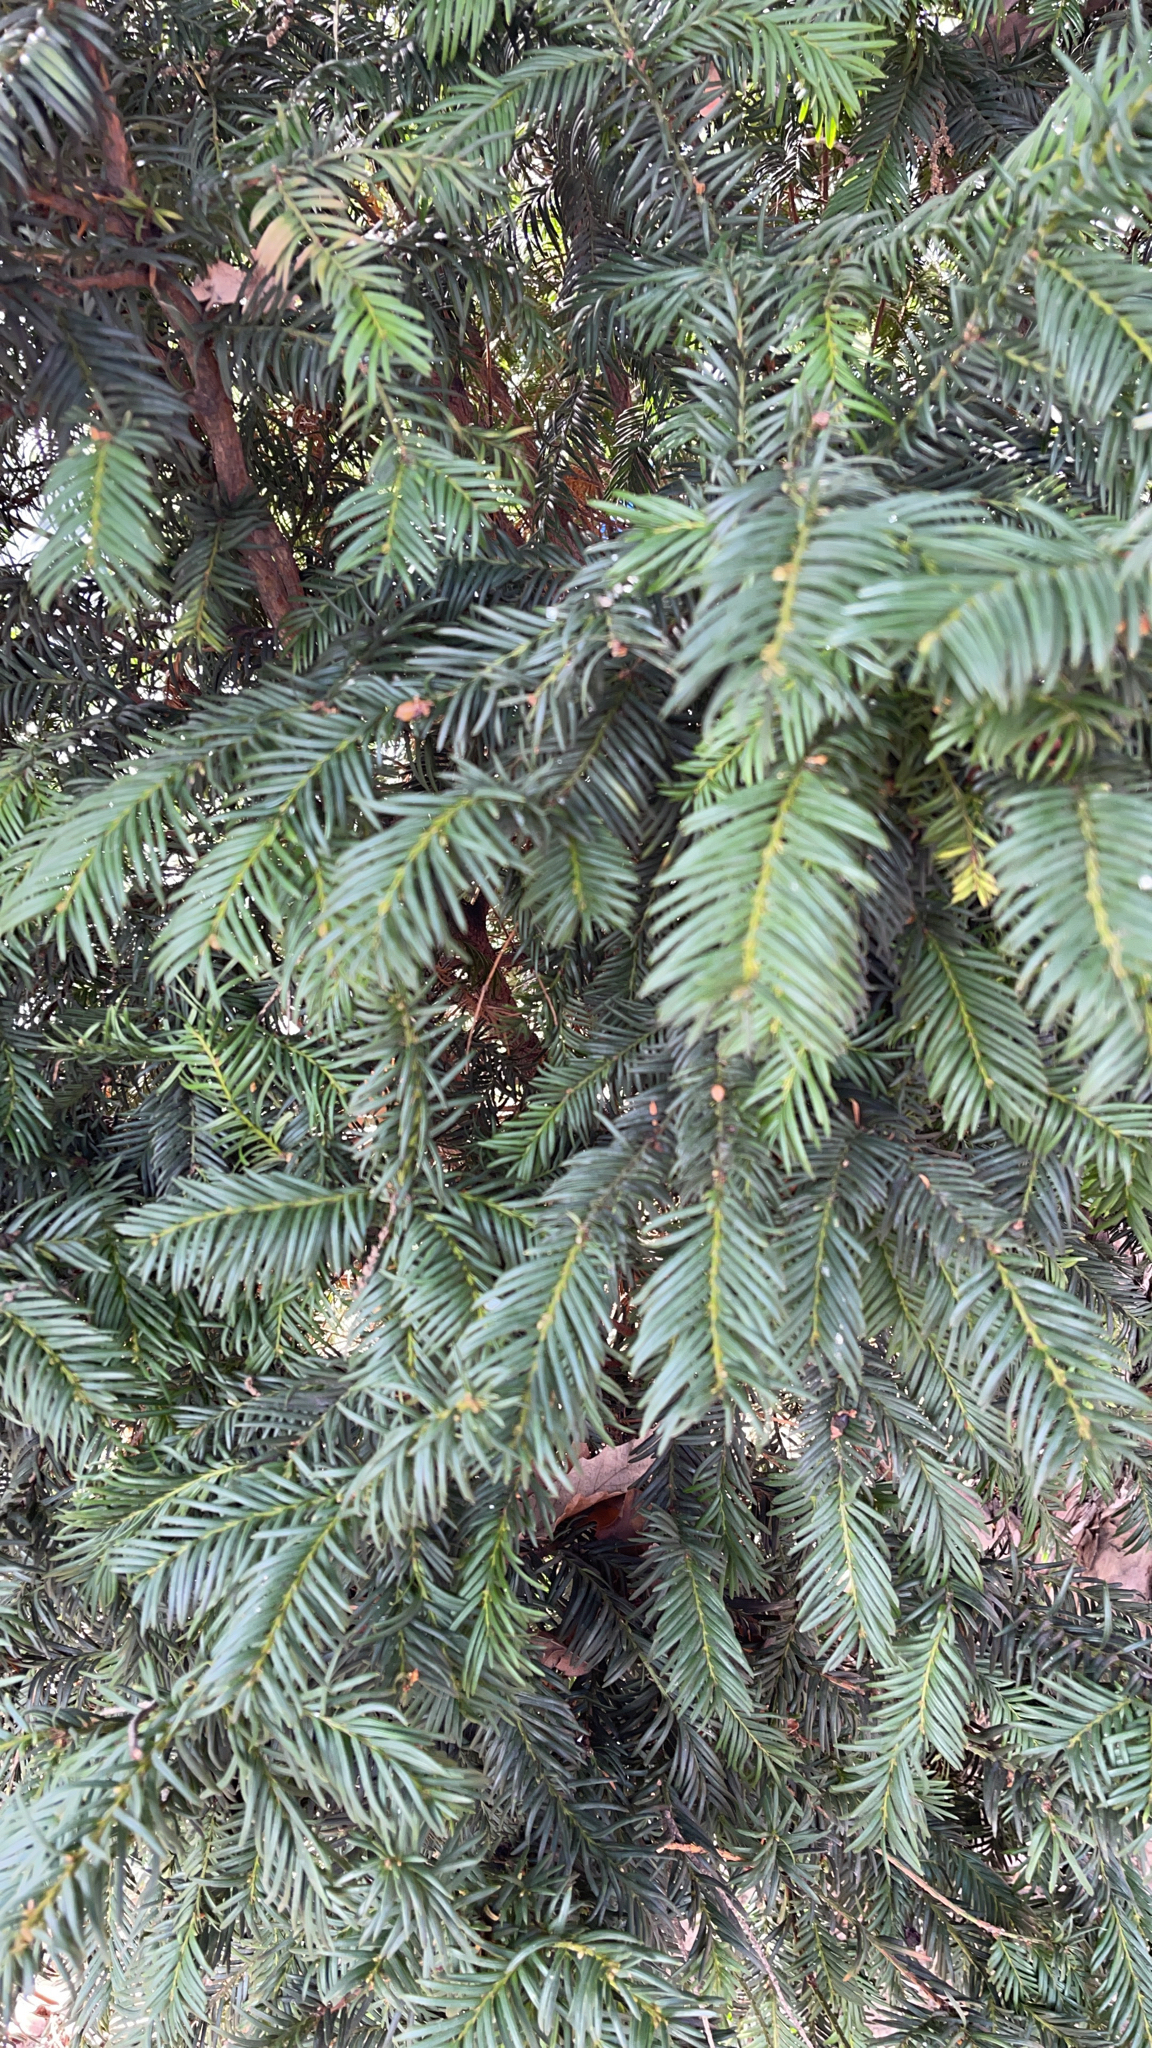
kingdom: Plantae
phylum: Tracheophyta
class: Pinopsida
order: Pinales
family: Taxaceae
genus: Taxus
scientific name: Taxus baccata
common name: Yew
